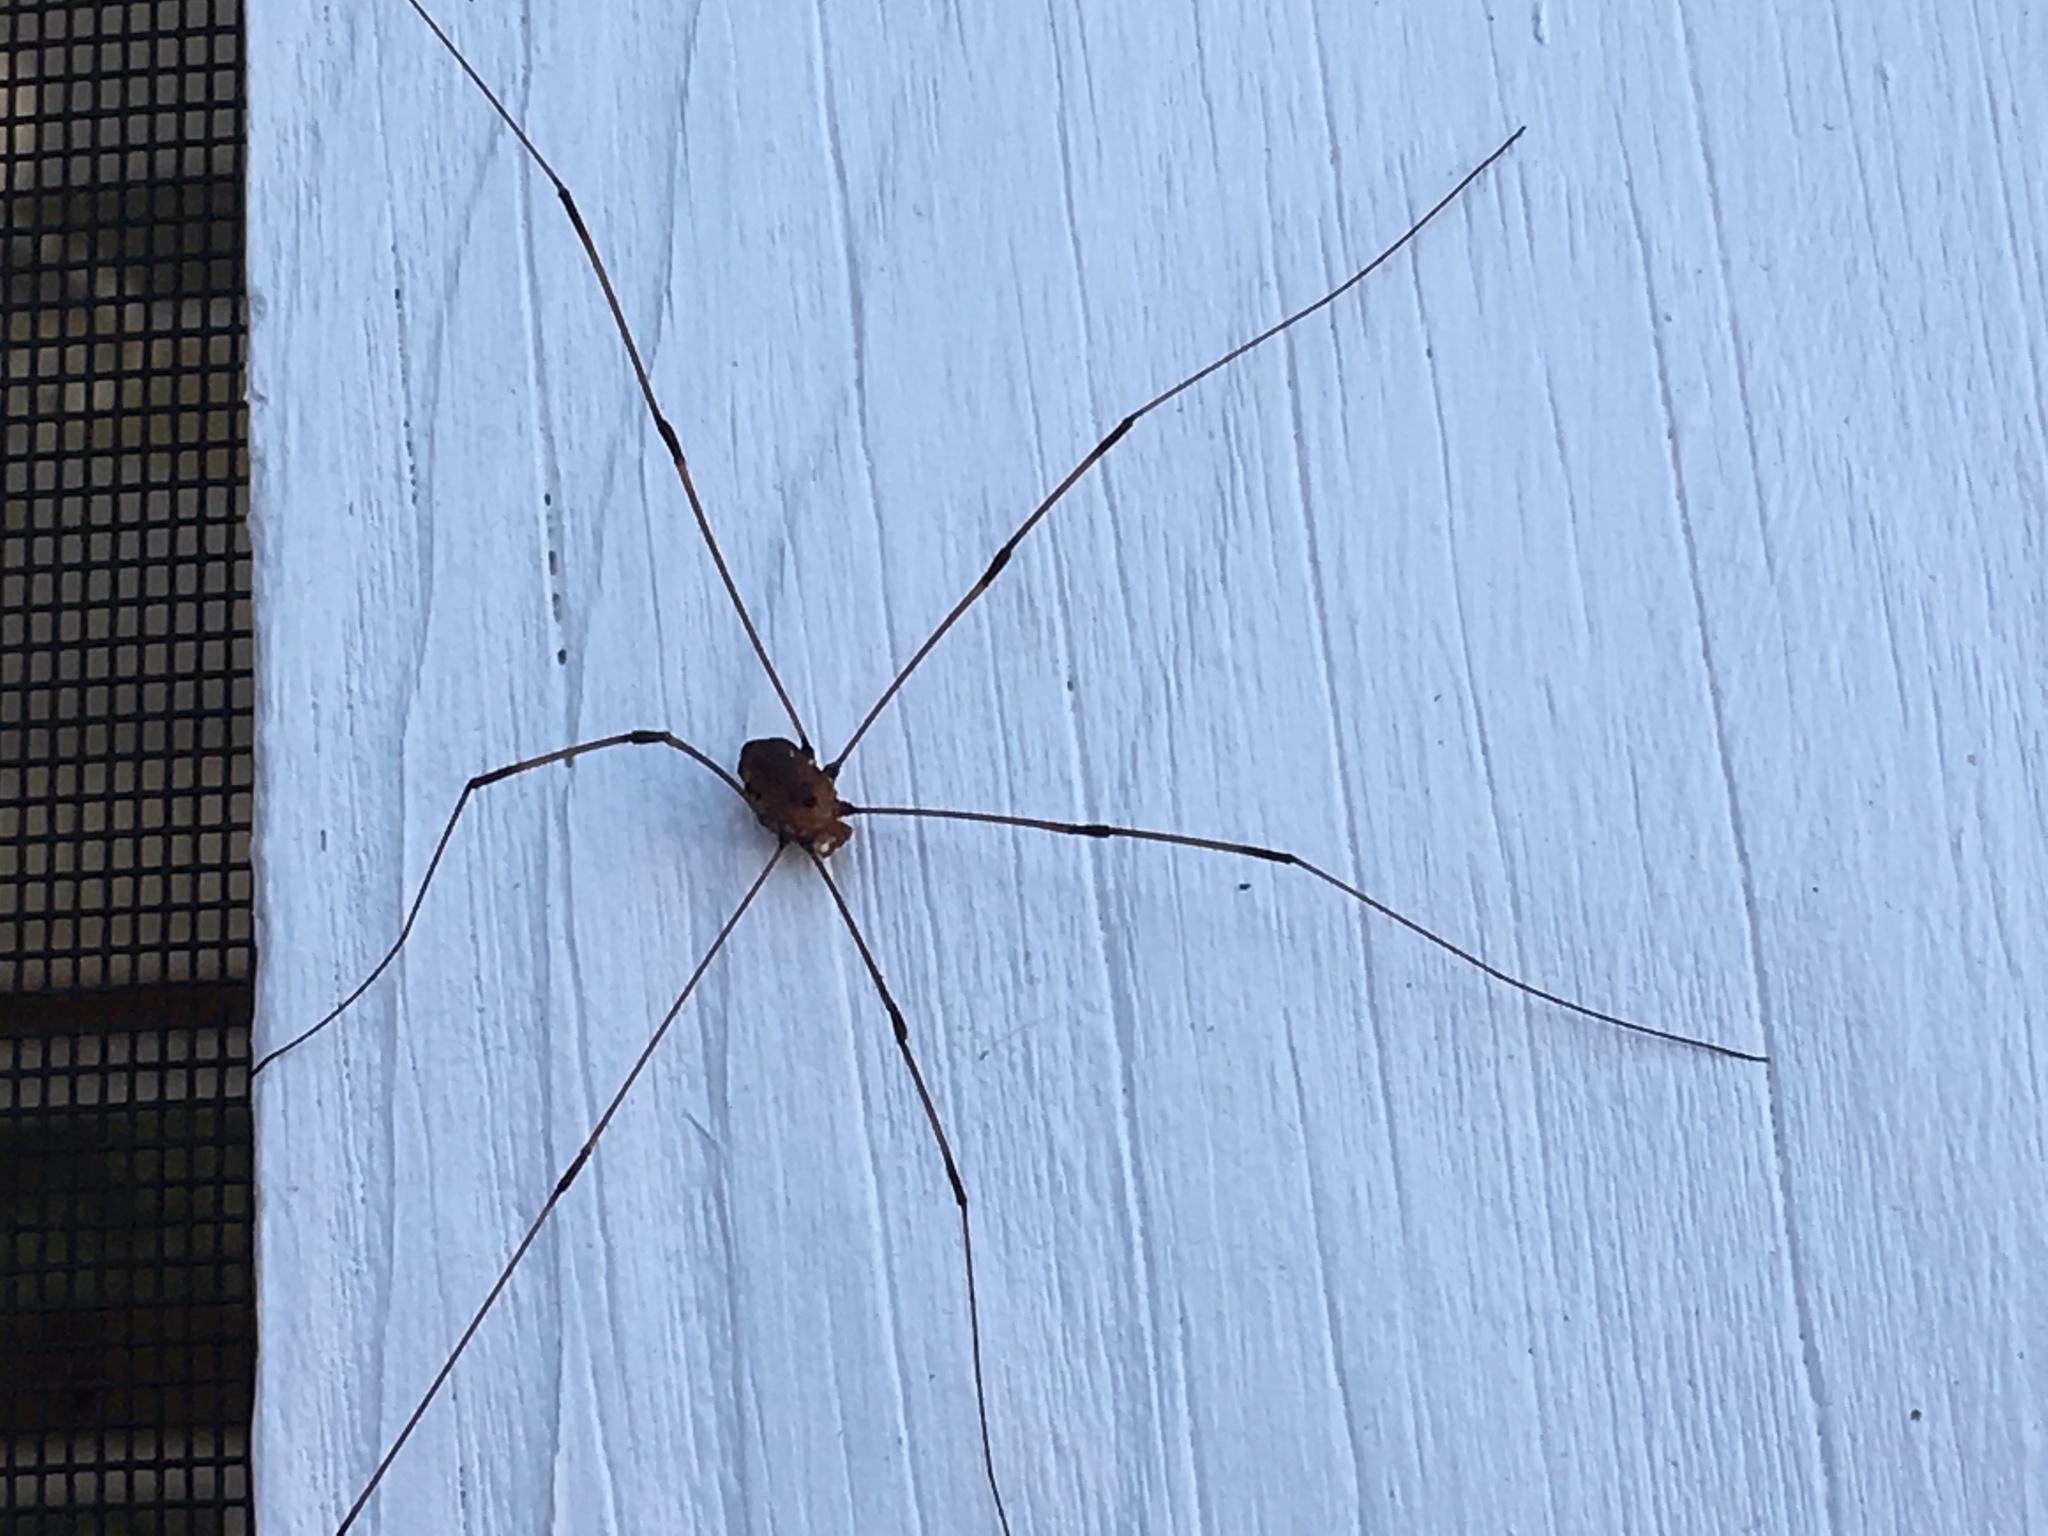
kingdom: Animalia
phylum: Arthropoda
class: Arachnida
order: Opiliones
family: Sclerosomatidae
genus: Leiobunum
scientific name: Leiobunum vittatum
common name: Eastern harvestman
